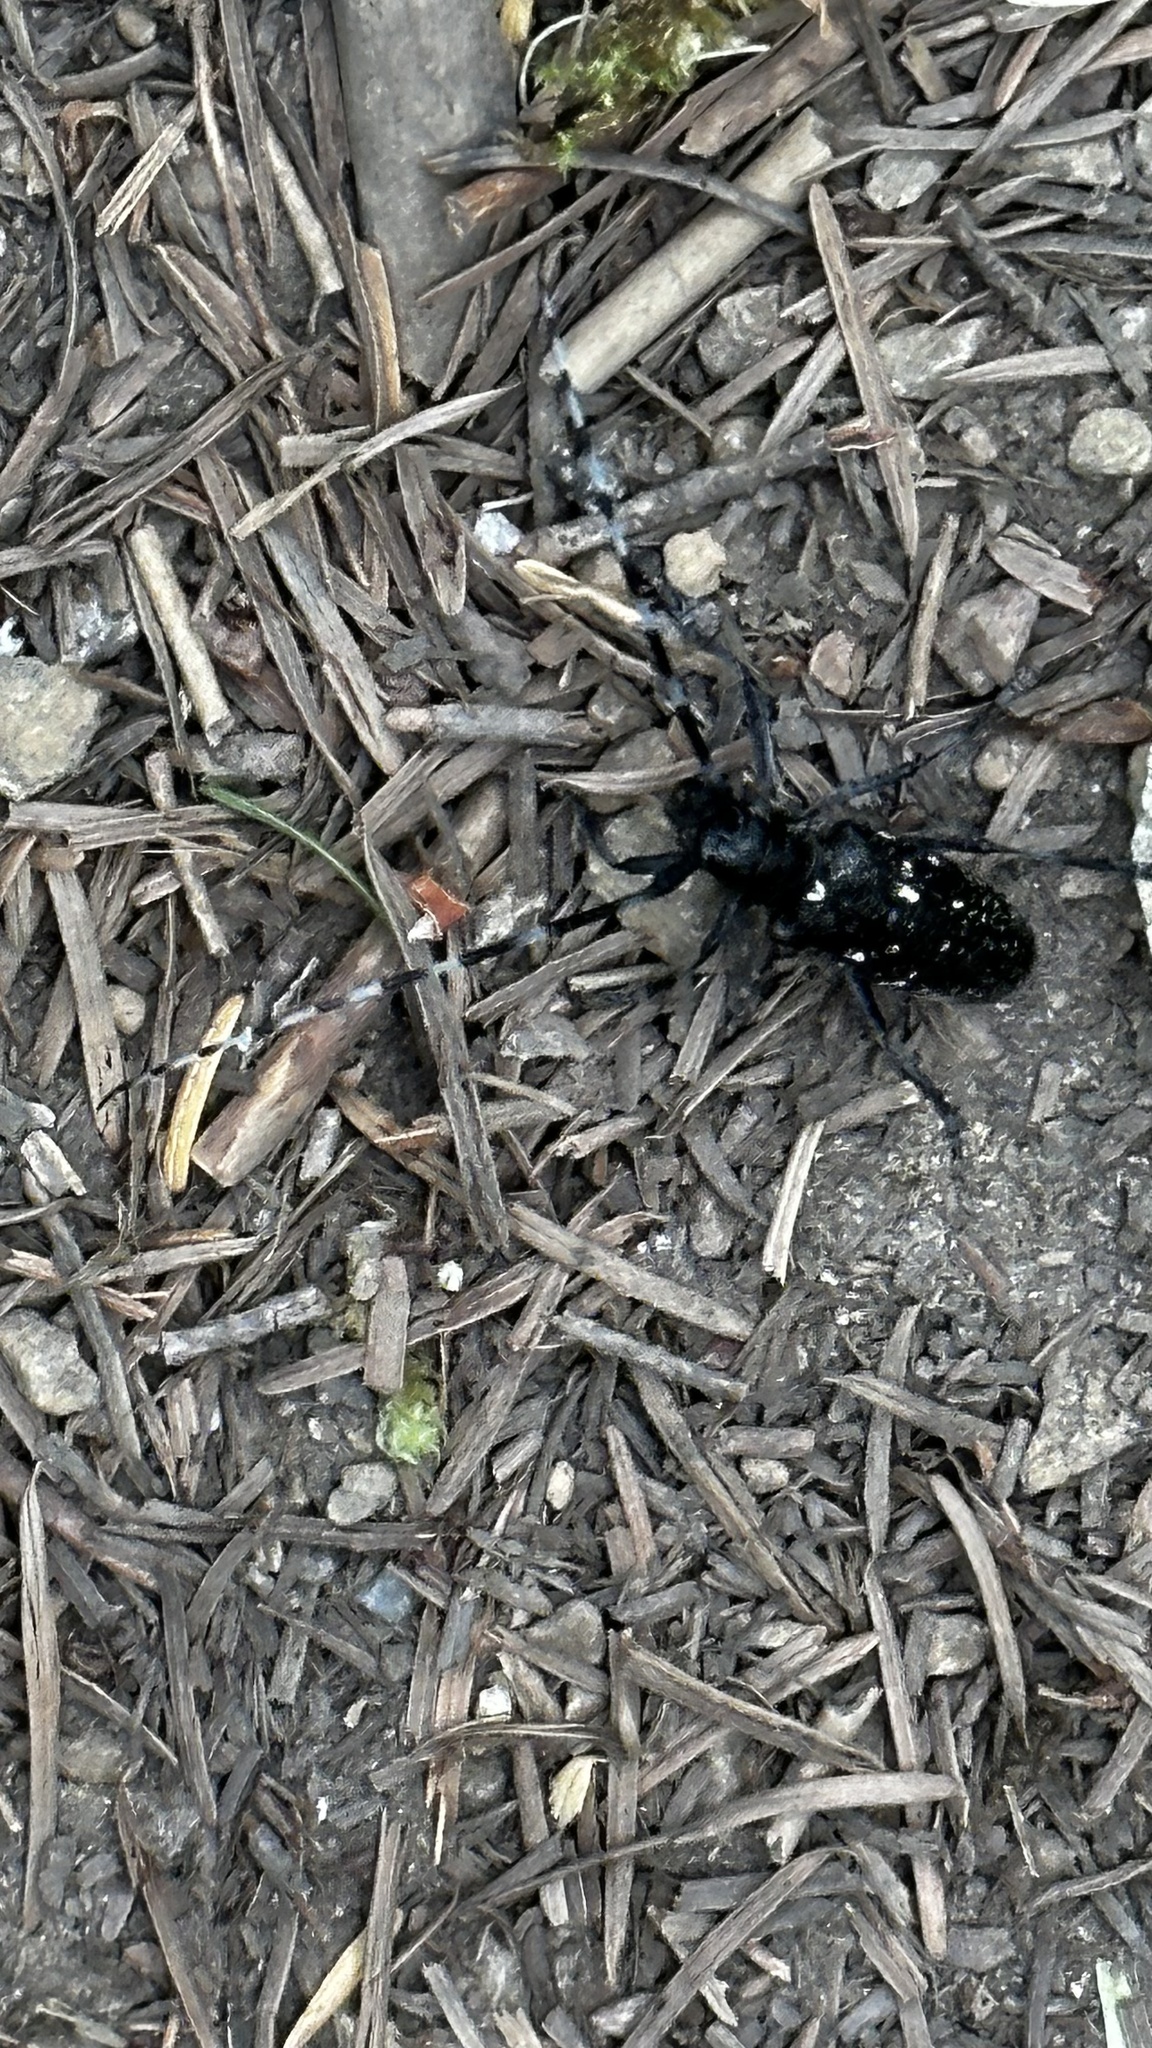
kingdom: Animalia
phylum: Arthropoda
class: Insecta
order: Coleoptera
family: Cerambycidae
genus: Monochamus
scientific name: Monochamus scutellatus
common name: White-spotted sawyer beetle
